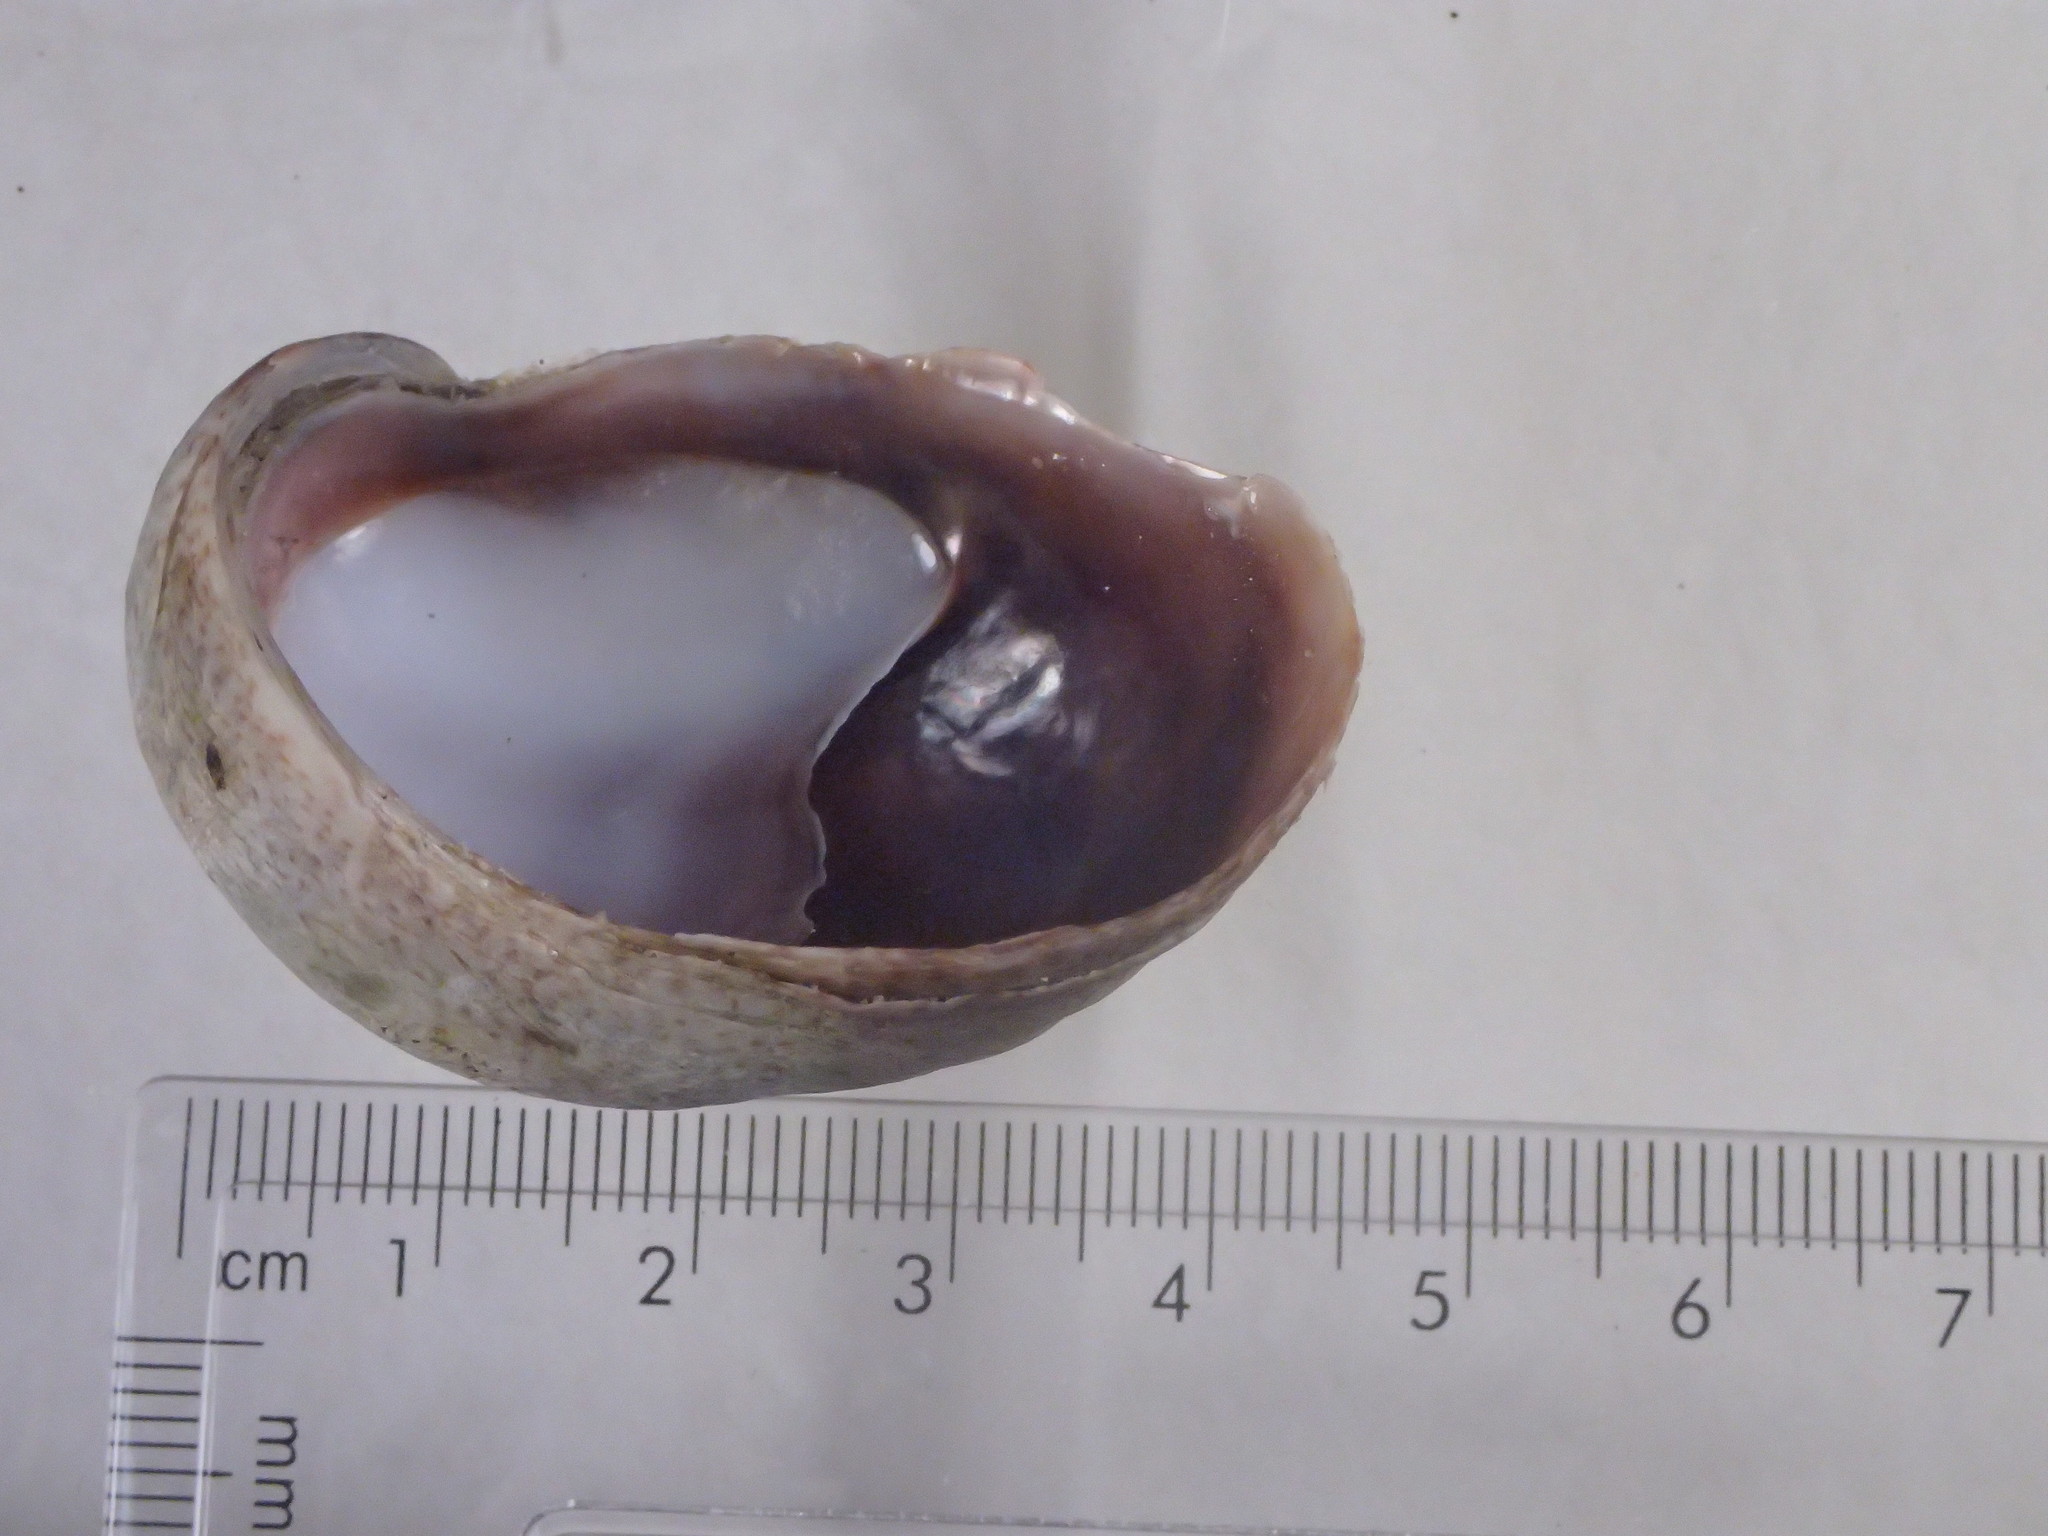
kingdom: Animalia
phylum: Mollusca
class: Gastropoda
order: Littorinimorpha
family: Calyptraeidae
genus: Crepidula
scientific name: Crepidula fornicata
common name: Slipper limpet
